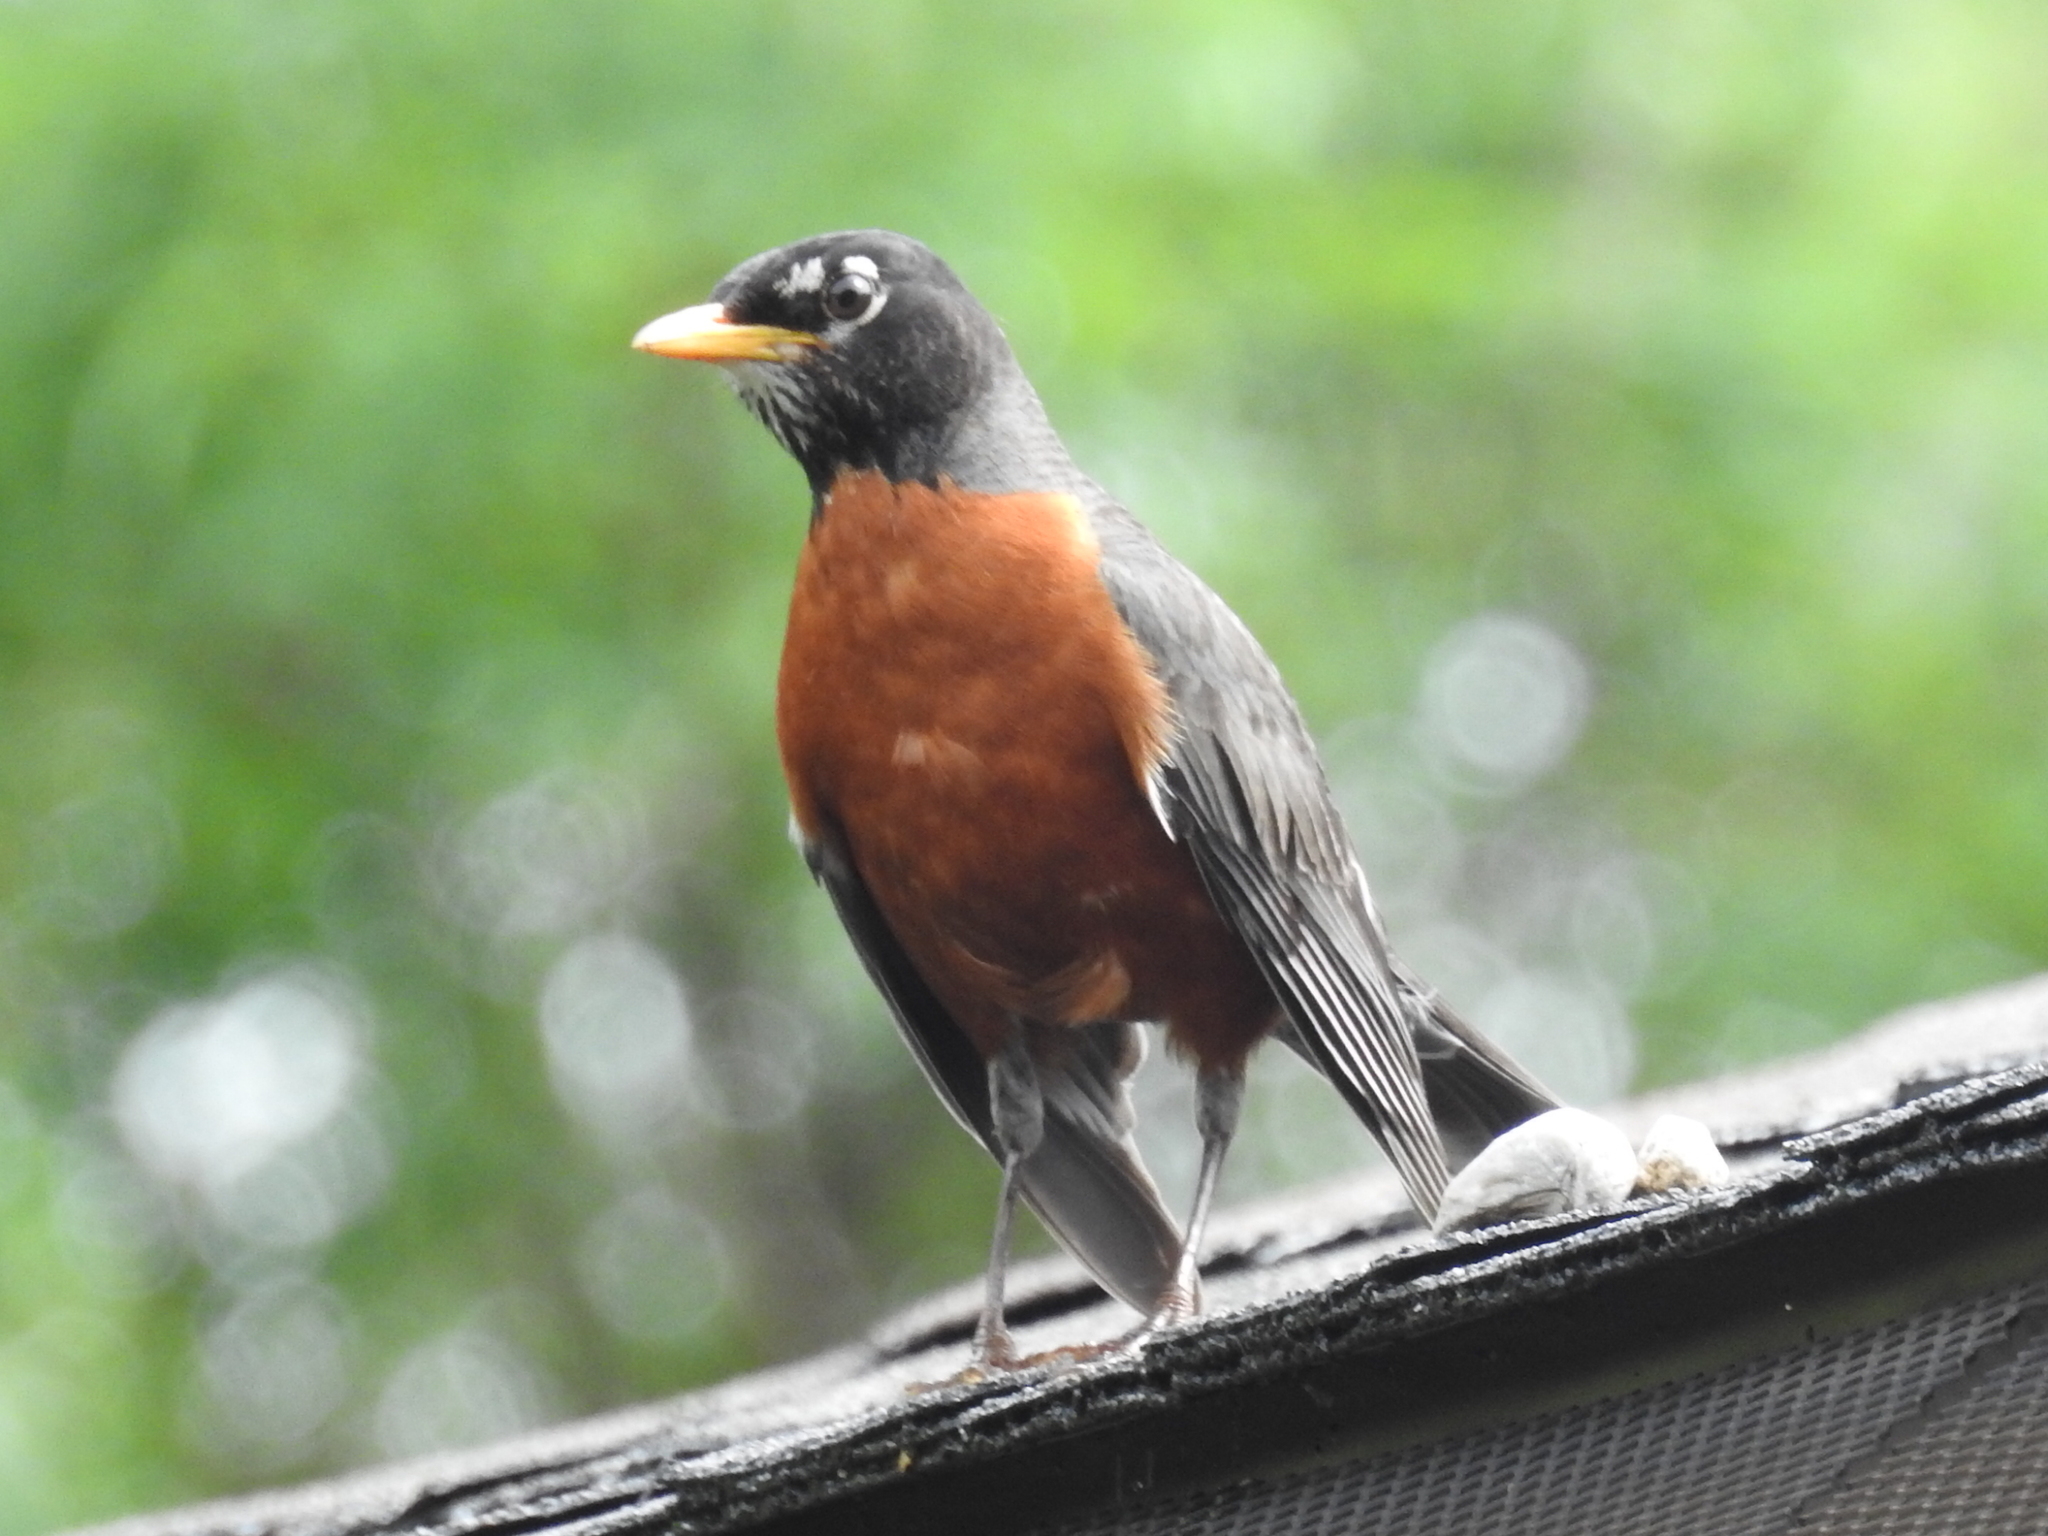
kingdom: Animalia
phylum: Chordata
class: Aves
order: Passeriformes
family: Turdidae
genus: Turdus
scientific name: Turdus migratorius
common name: American robin
